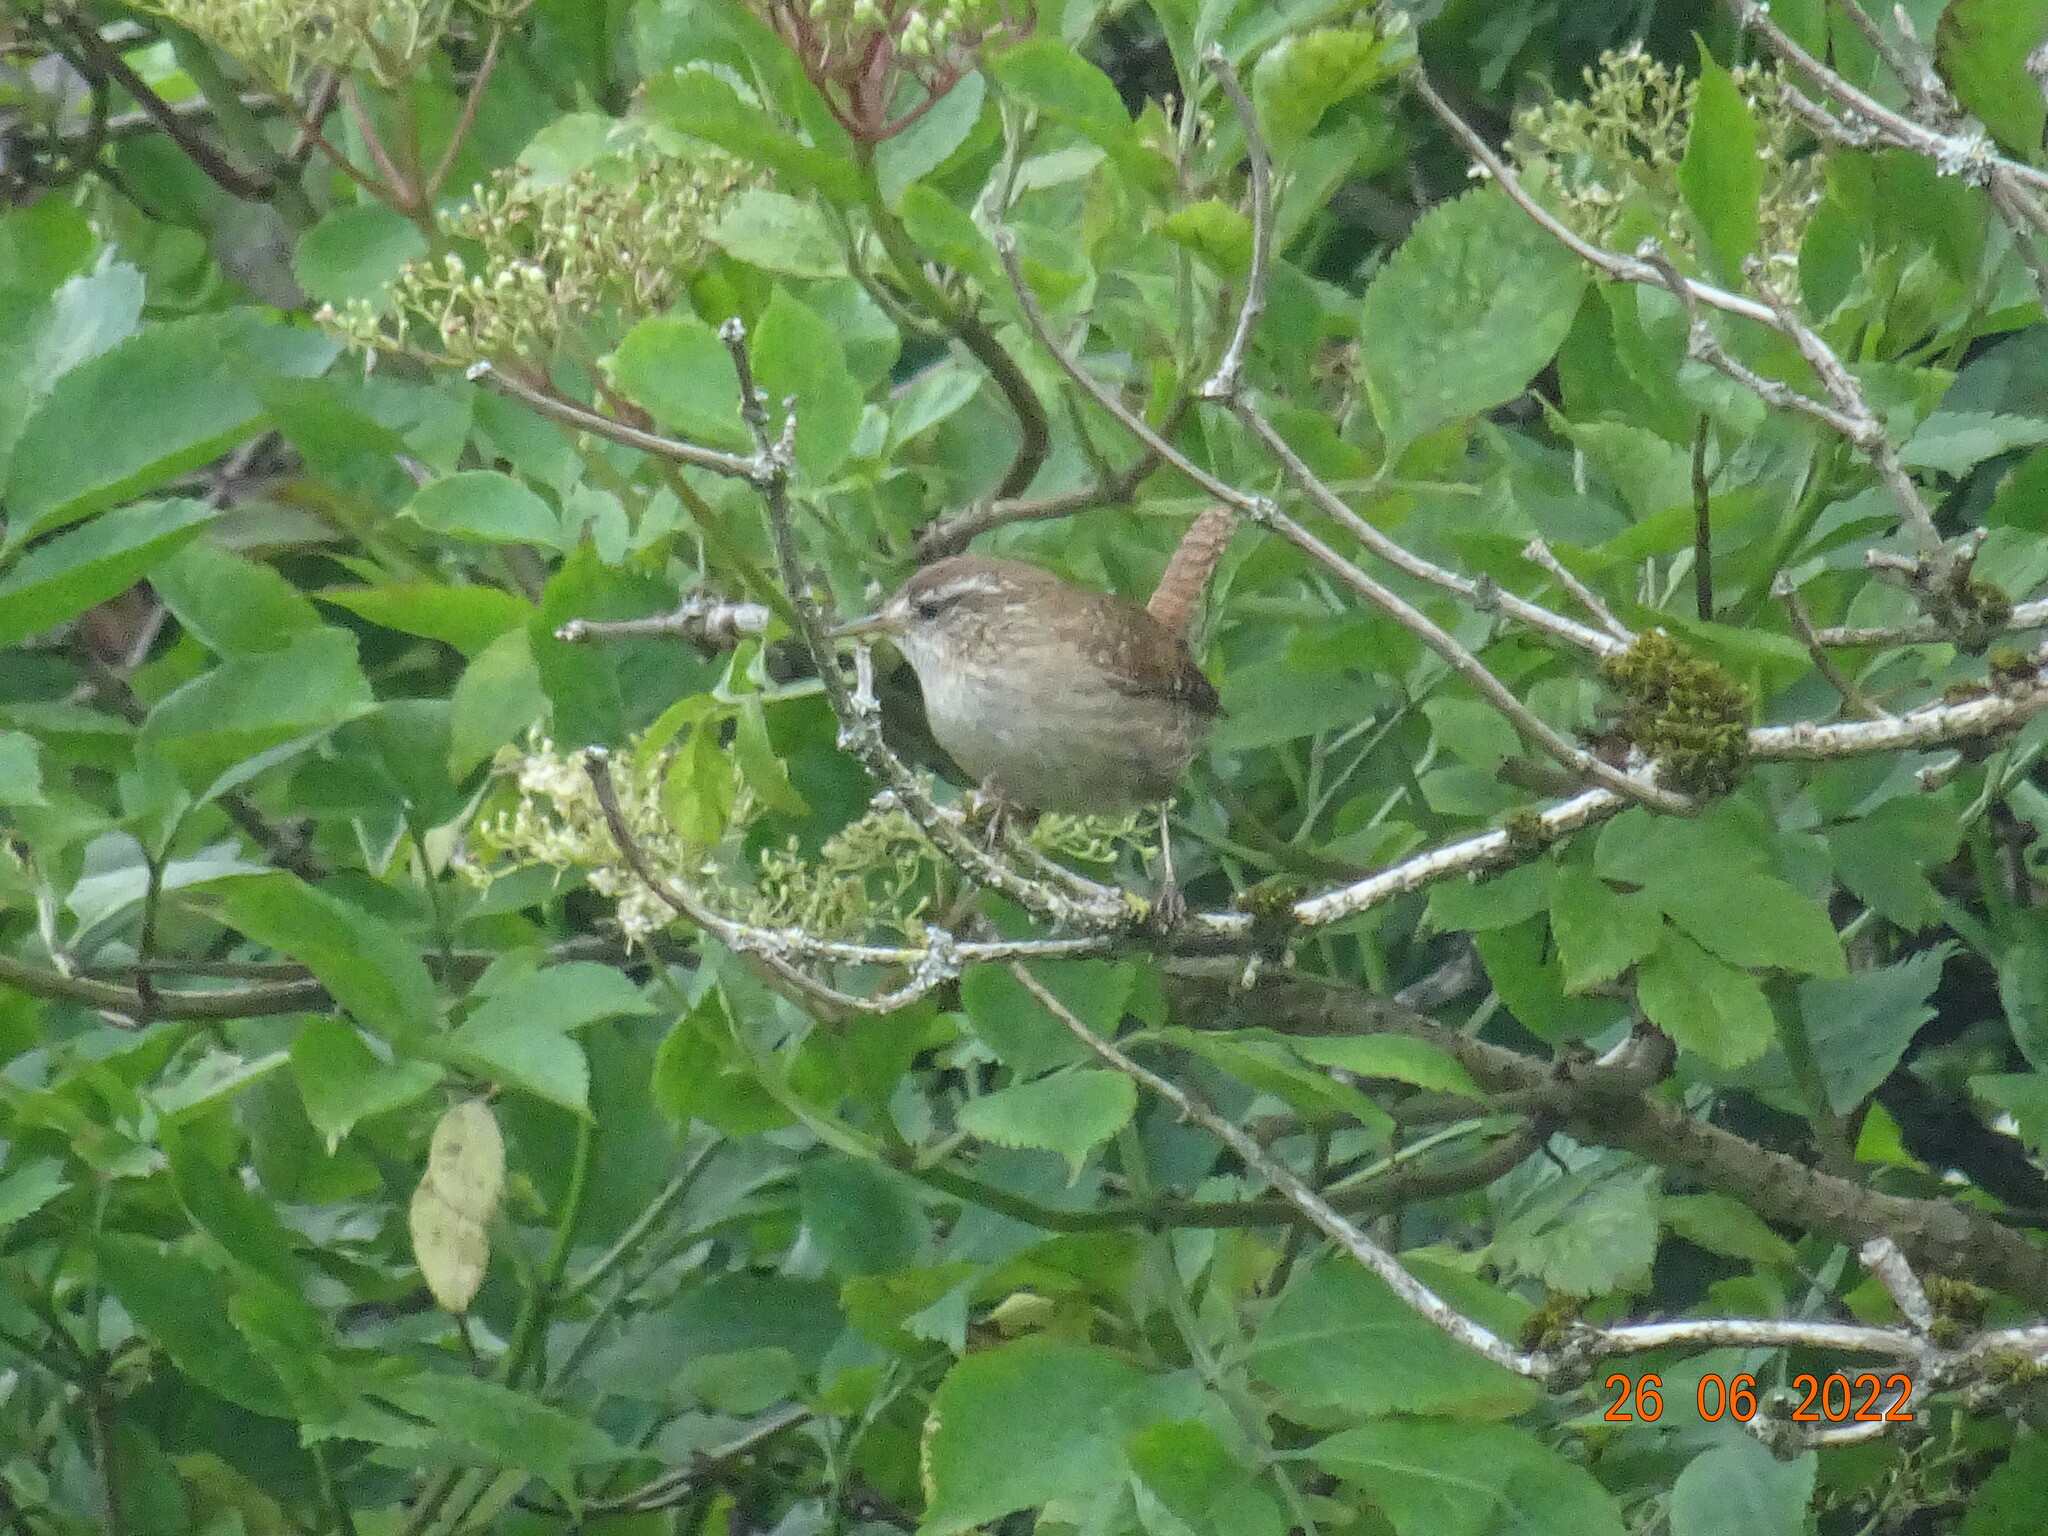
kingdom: Animalia
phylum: Chordata
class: Aves
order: Passeriformes
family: Troglodytidae
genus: Troglodytes
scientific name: Troglodytes troglodytes
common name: Eurasian wren
